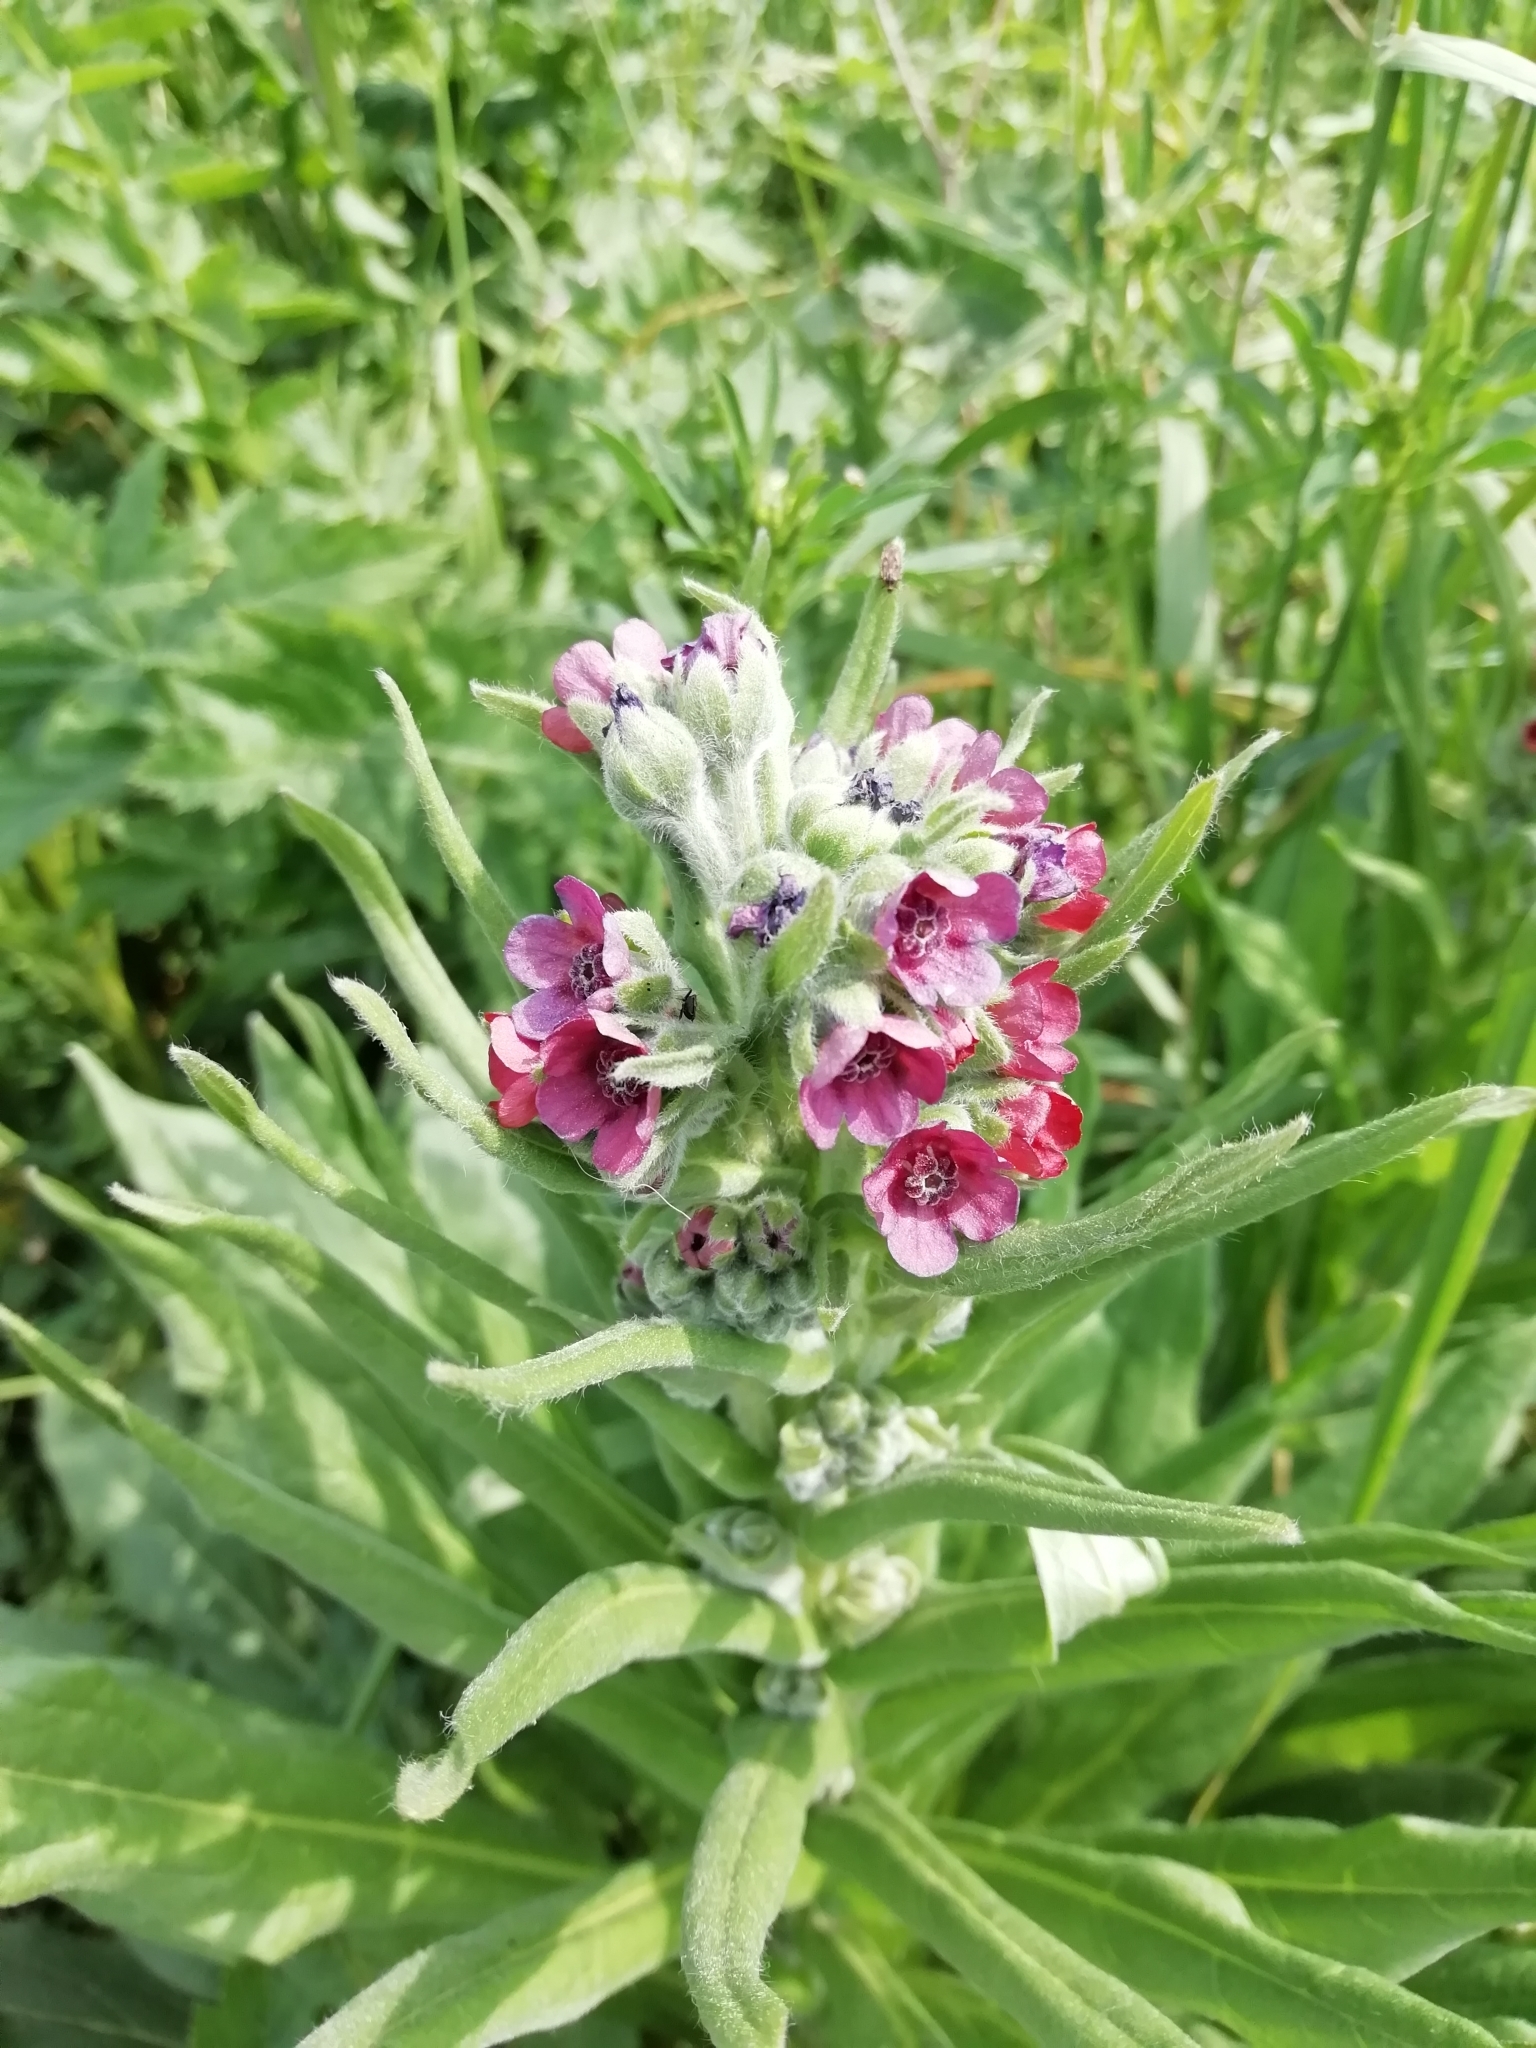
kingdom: Plantae
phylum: Tracheophyta
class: Magnoliopsida
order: Boraginales
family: Boraginaceae
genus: Cynoglossum
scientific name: Cynoglossum officinale
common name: Hound's-tongue
